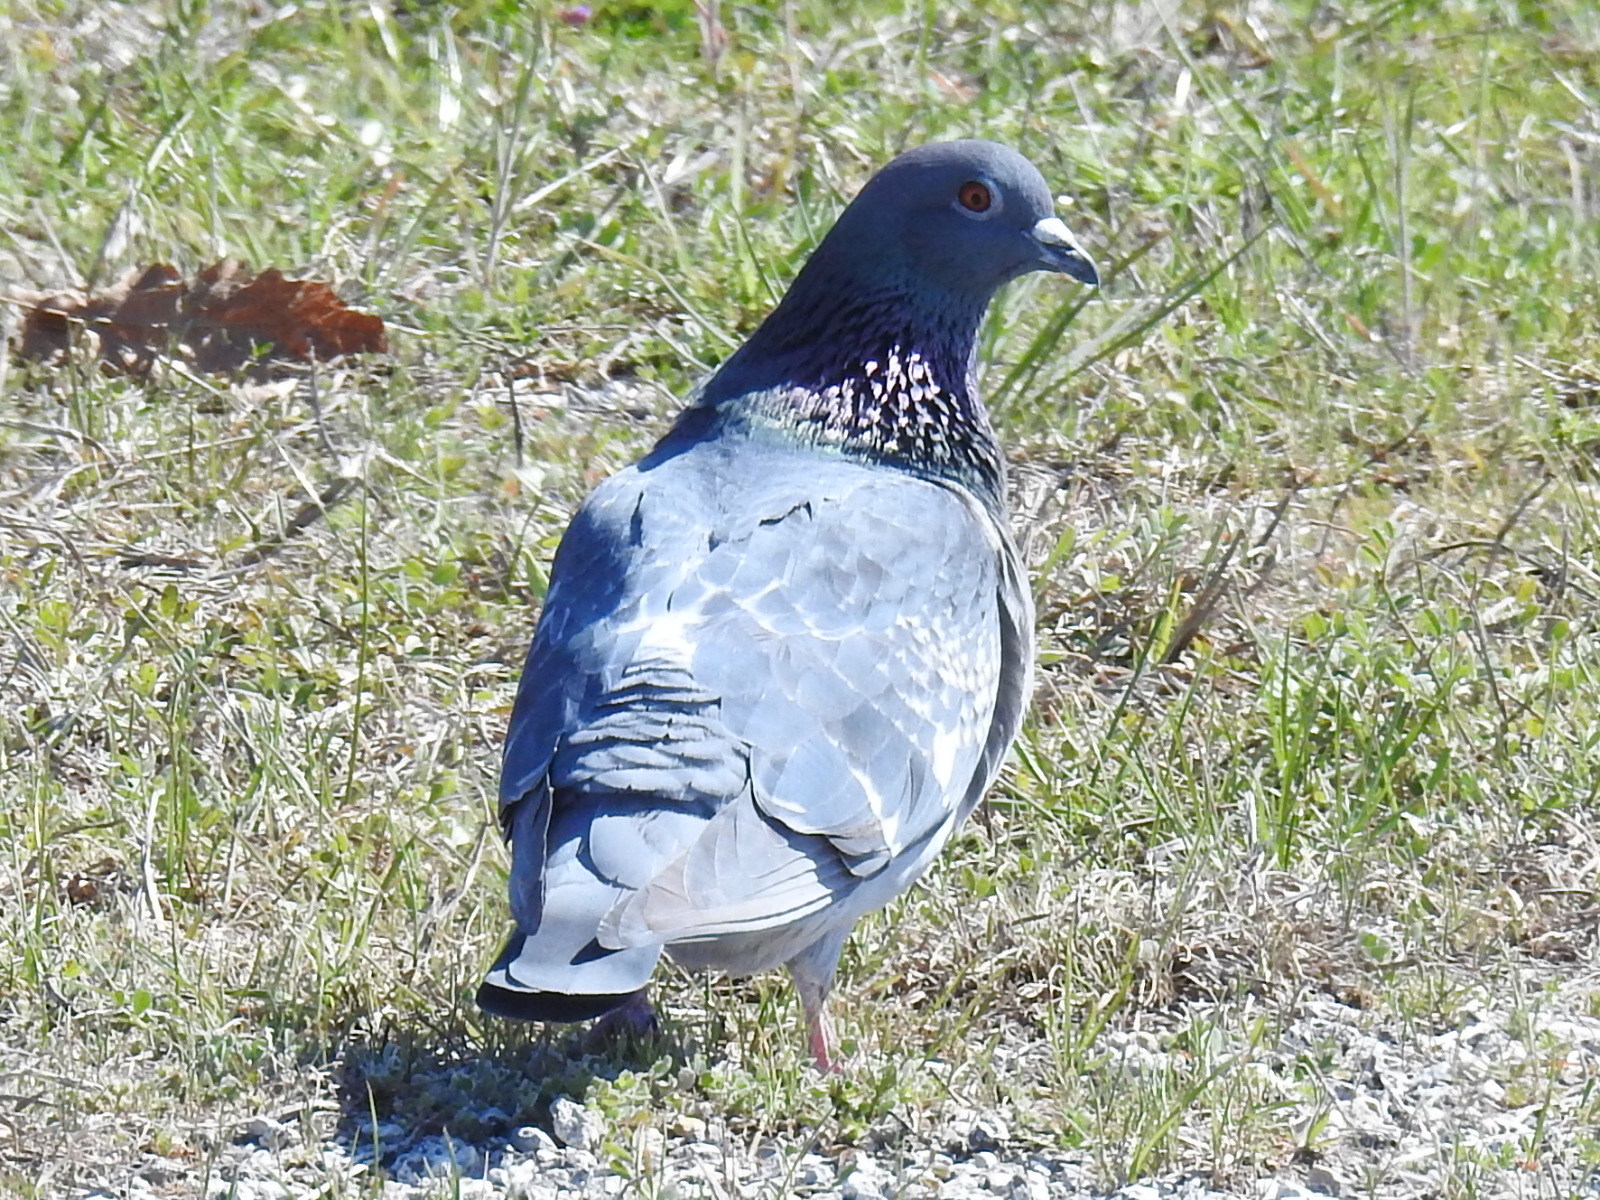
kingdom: Animalia
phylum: Chordata
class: Aves
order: Columbiformes
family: Columbidae
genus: Columba
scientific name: Columba livia
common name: Rock pigeon
